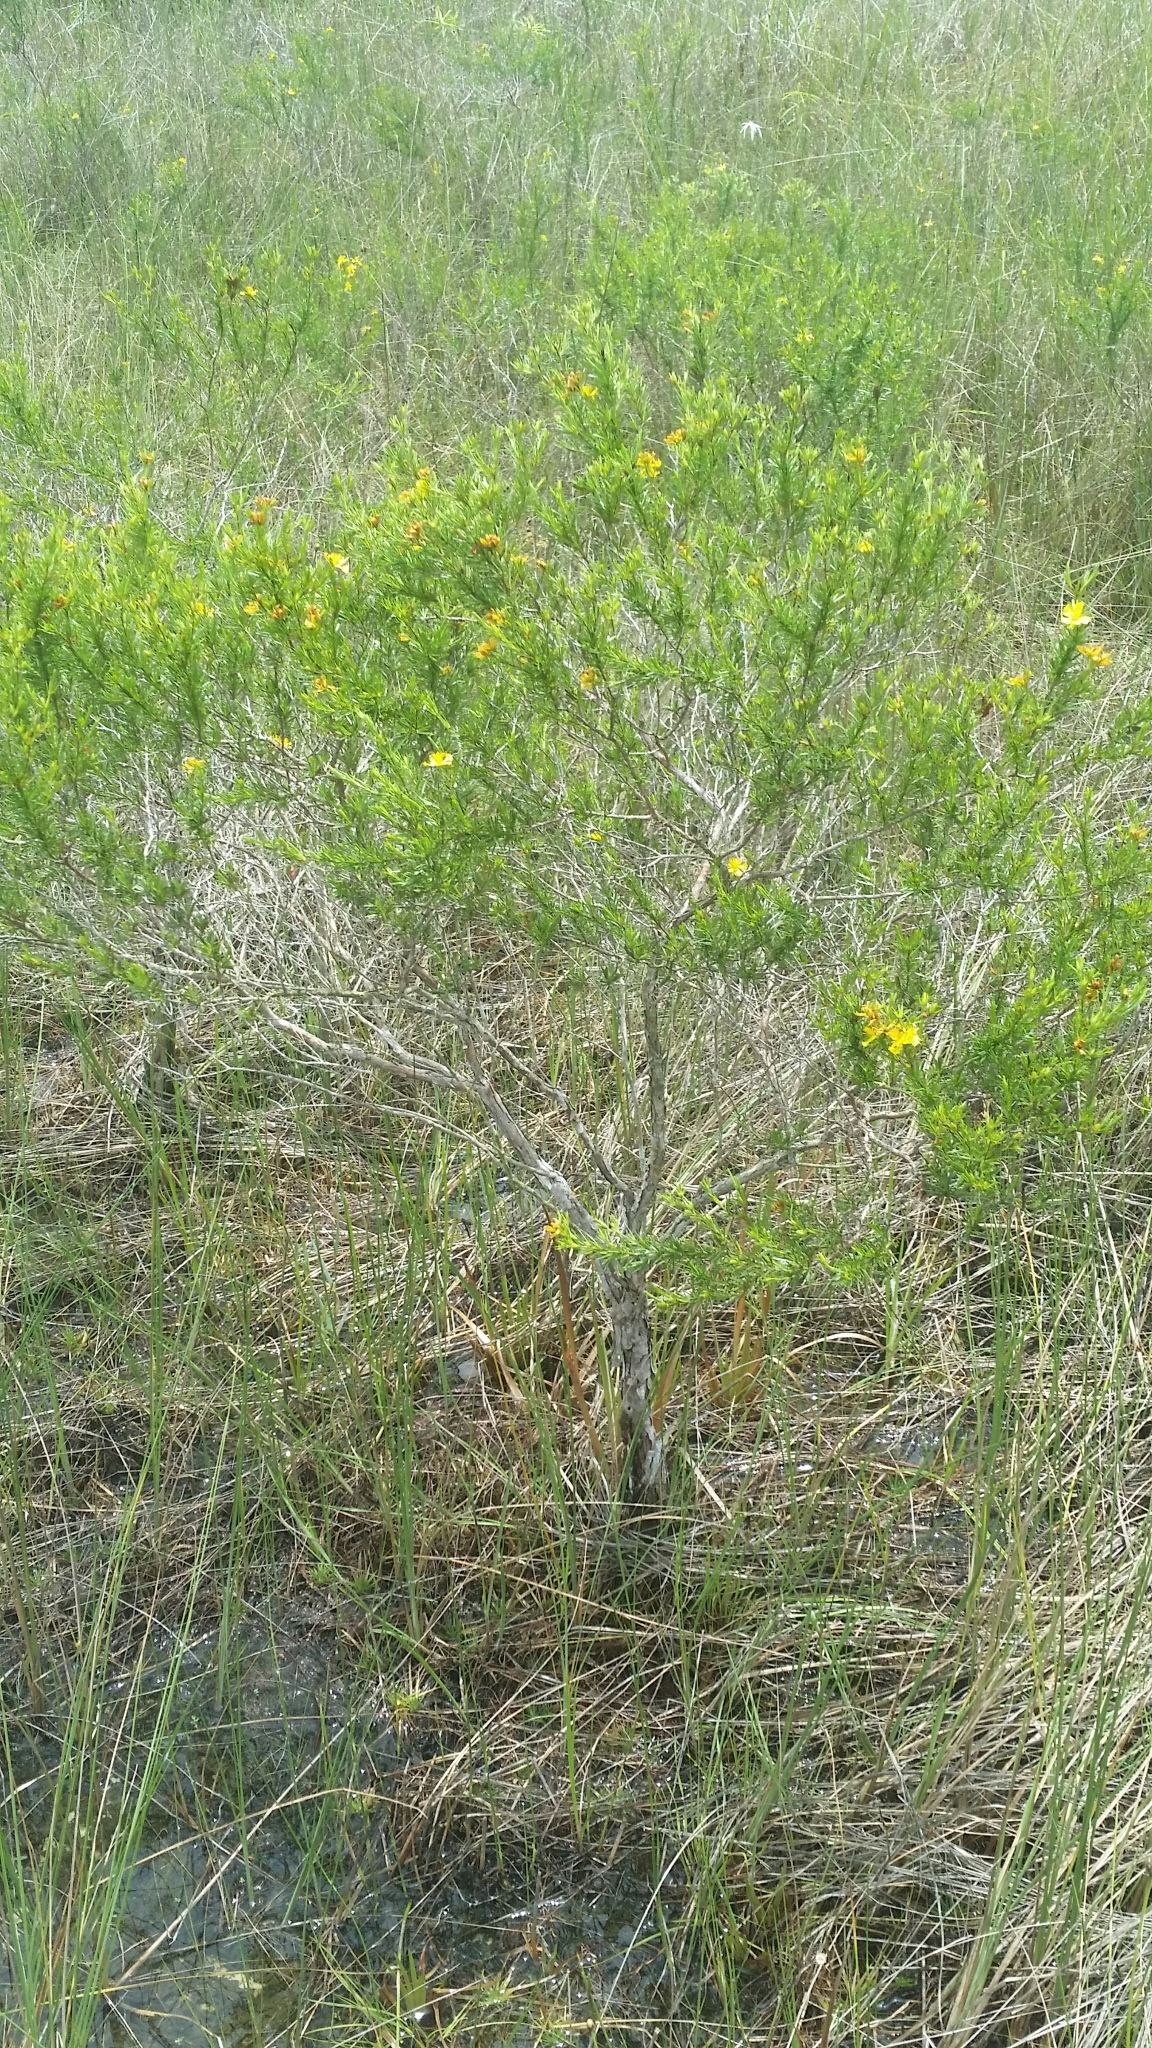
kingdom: Plantae
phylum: Tracheophyta
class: Magnoliopsida
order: Malpighiales
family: Hypericaceae
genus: Hypericum
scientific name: Hypericum fasciculatum
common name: Peelbark st. john's wort
